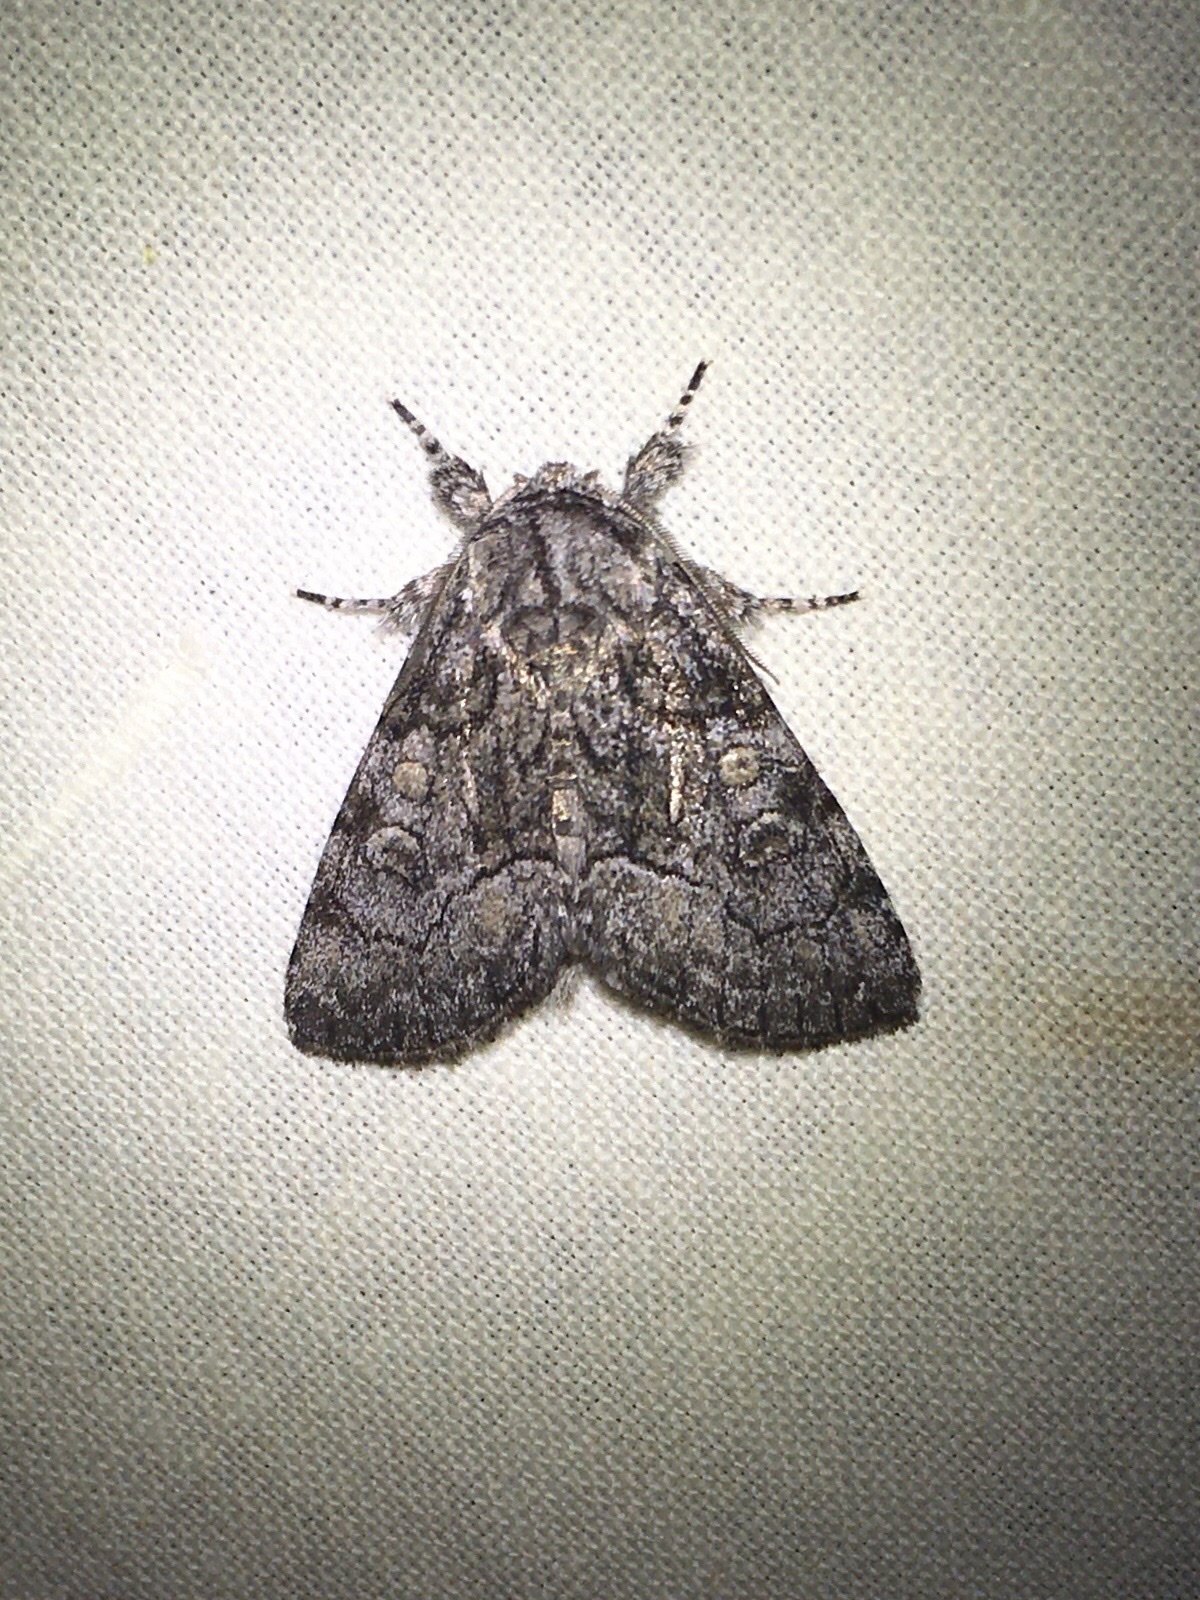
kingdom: Animalia
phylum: Arthropoda
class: Insecta
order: Lepidoptera
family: Noctuidae
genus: Raphia
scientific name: Raphia frater
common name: Brother
